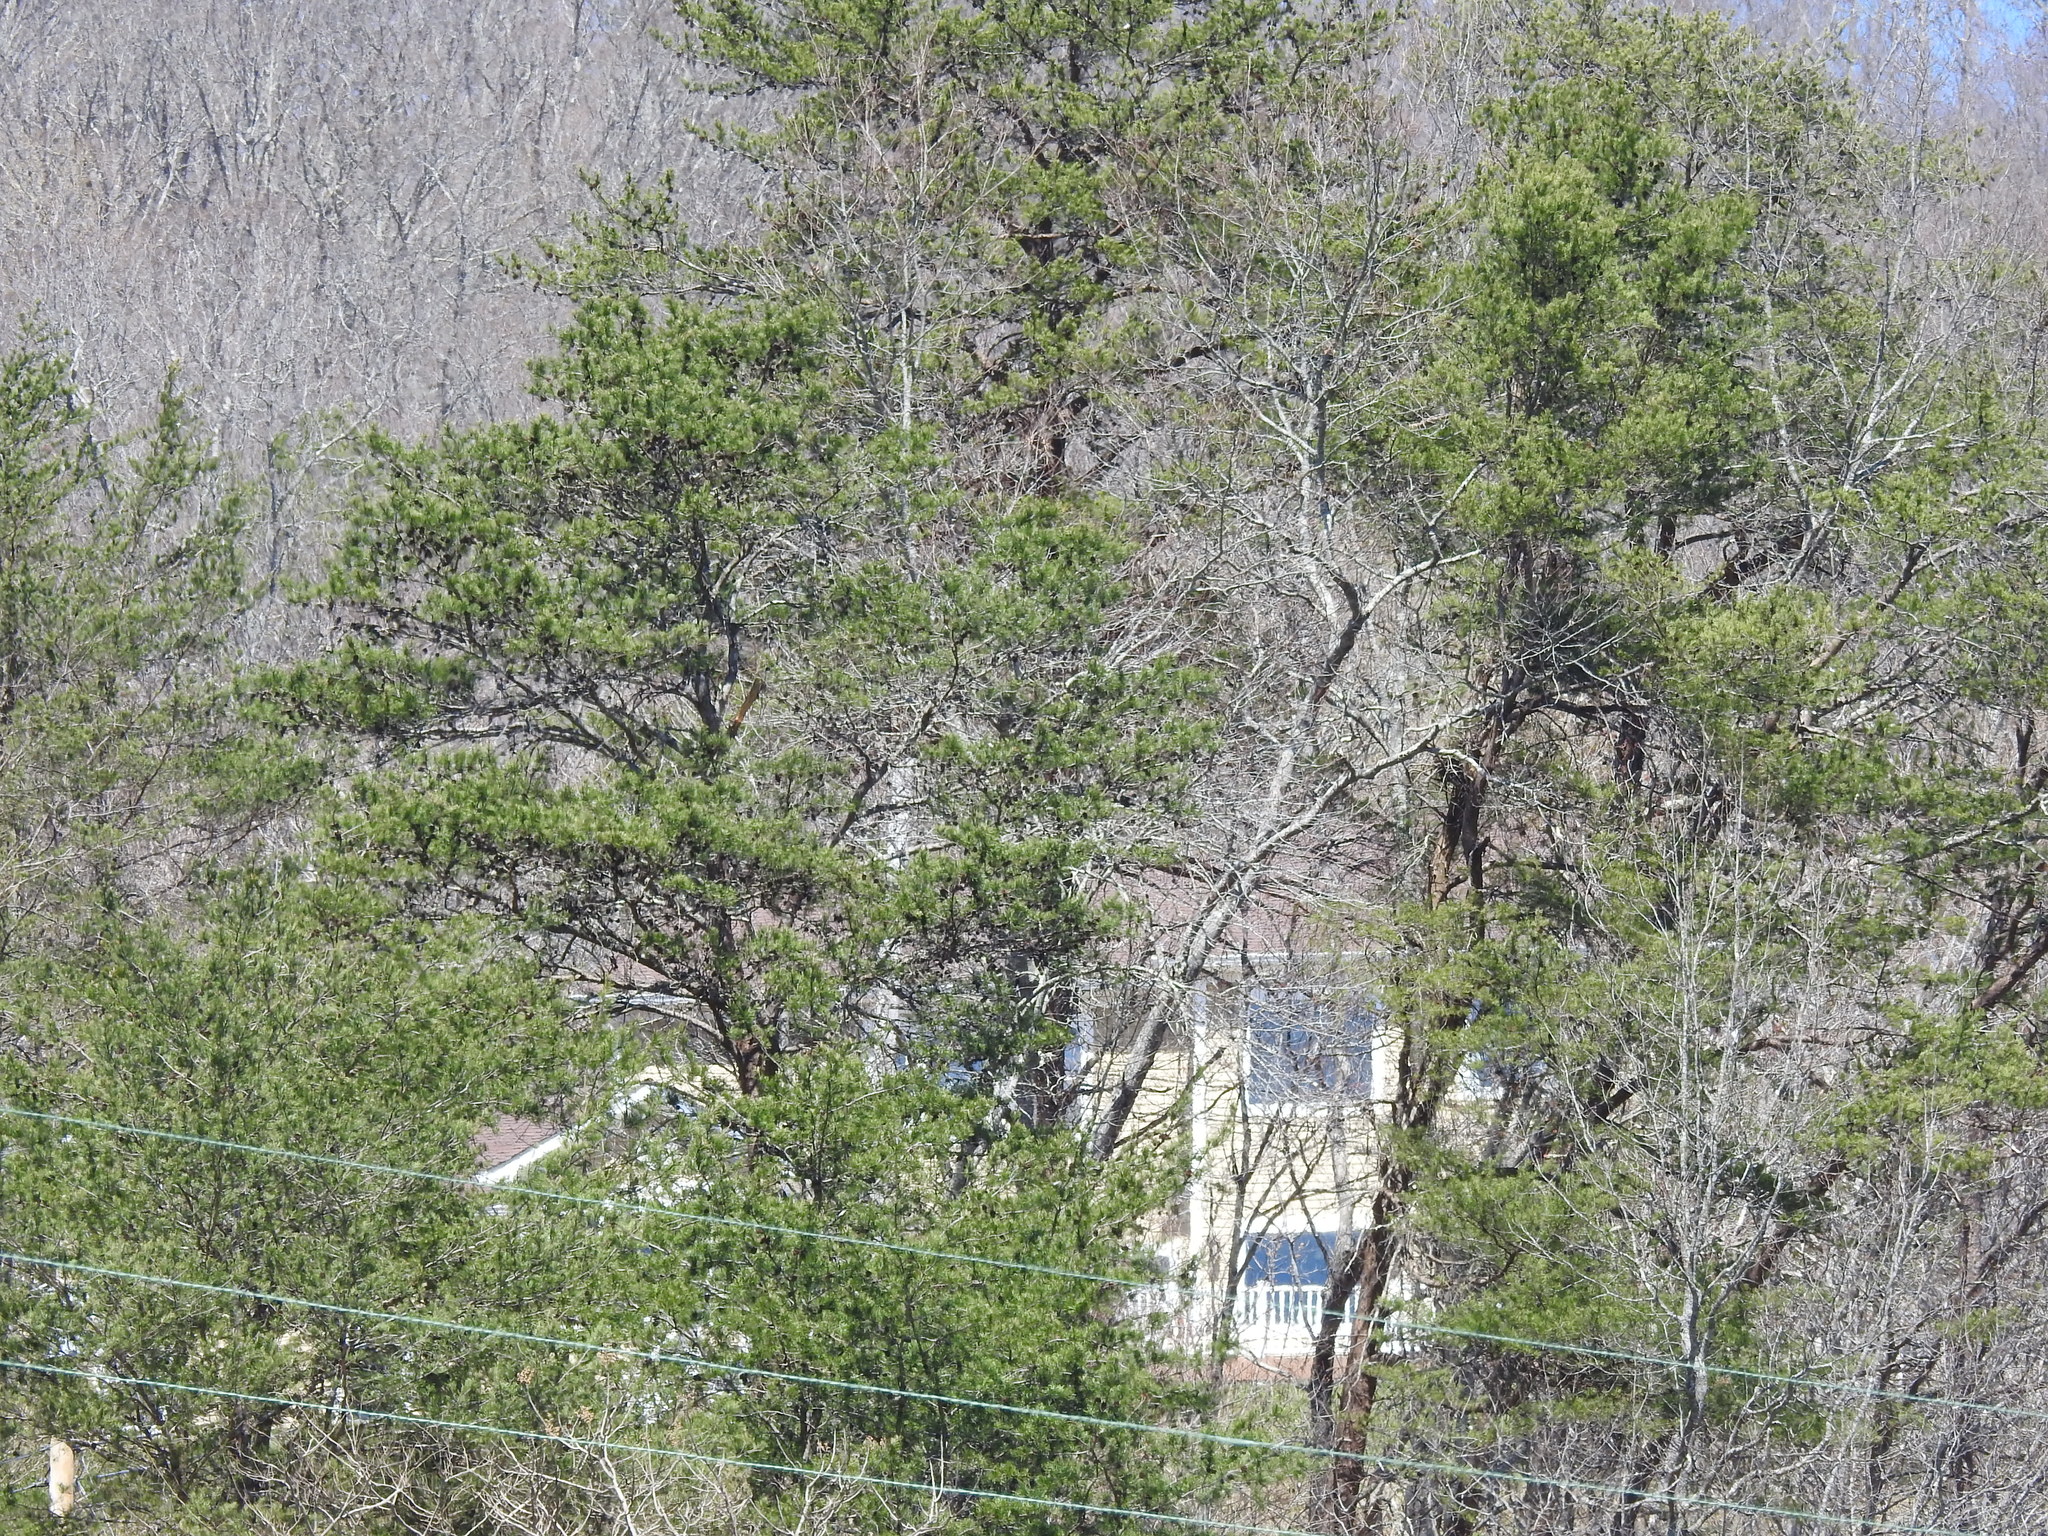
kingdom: Plantae
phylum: Tracheophyta
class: Pinopsida
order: Pinales
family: Pinaceae
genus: Pinus
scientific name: Pinus virginiana
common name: Scrub pine
